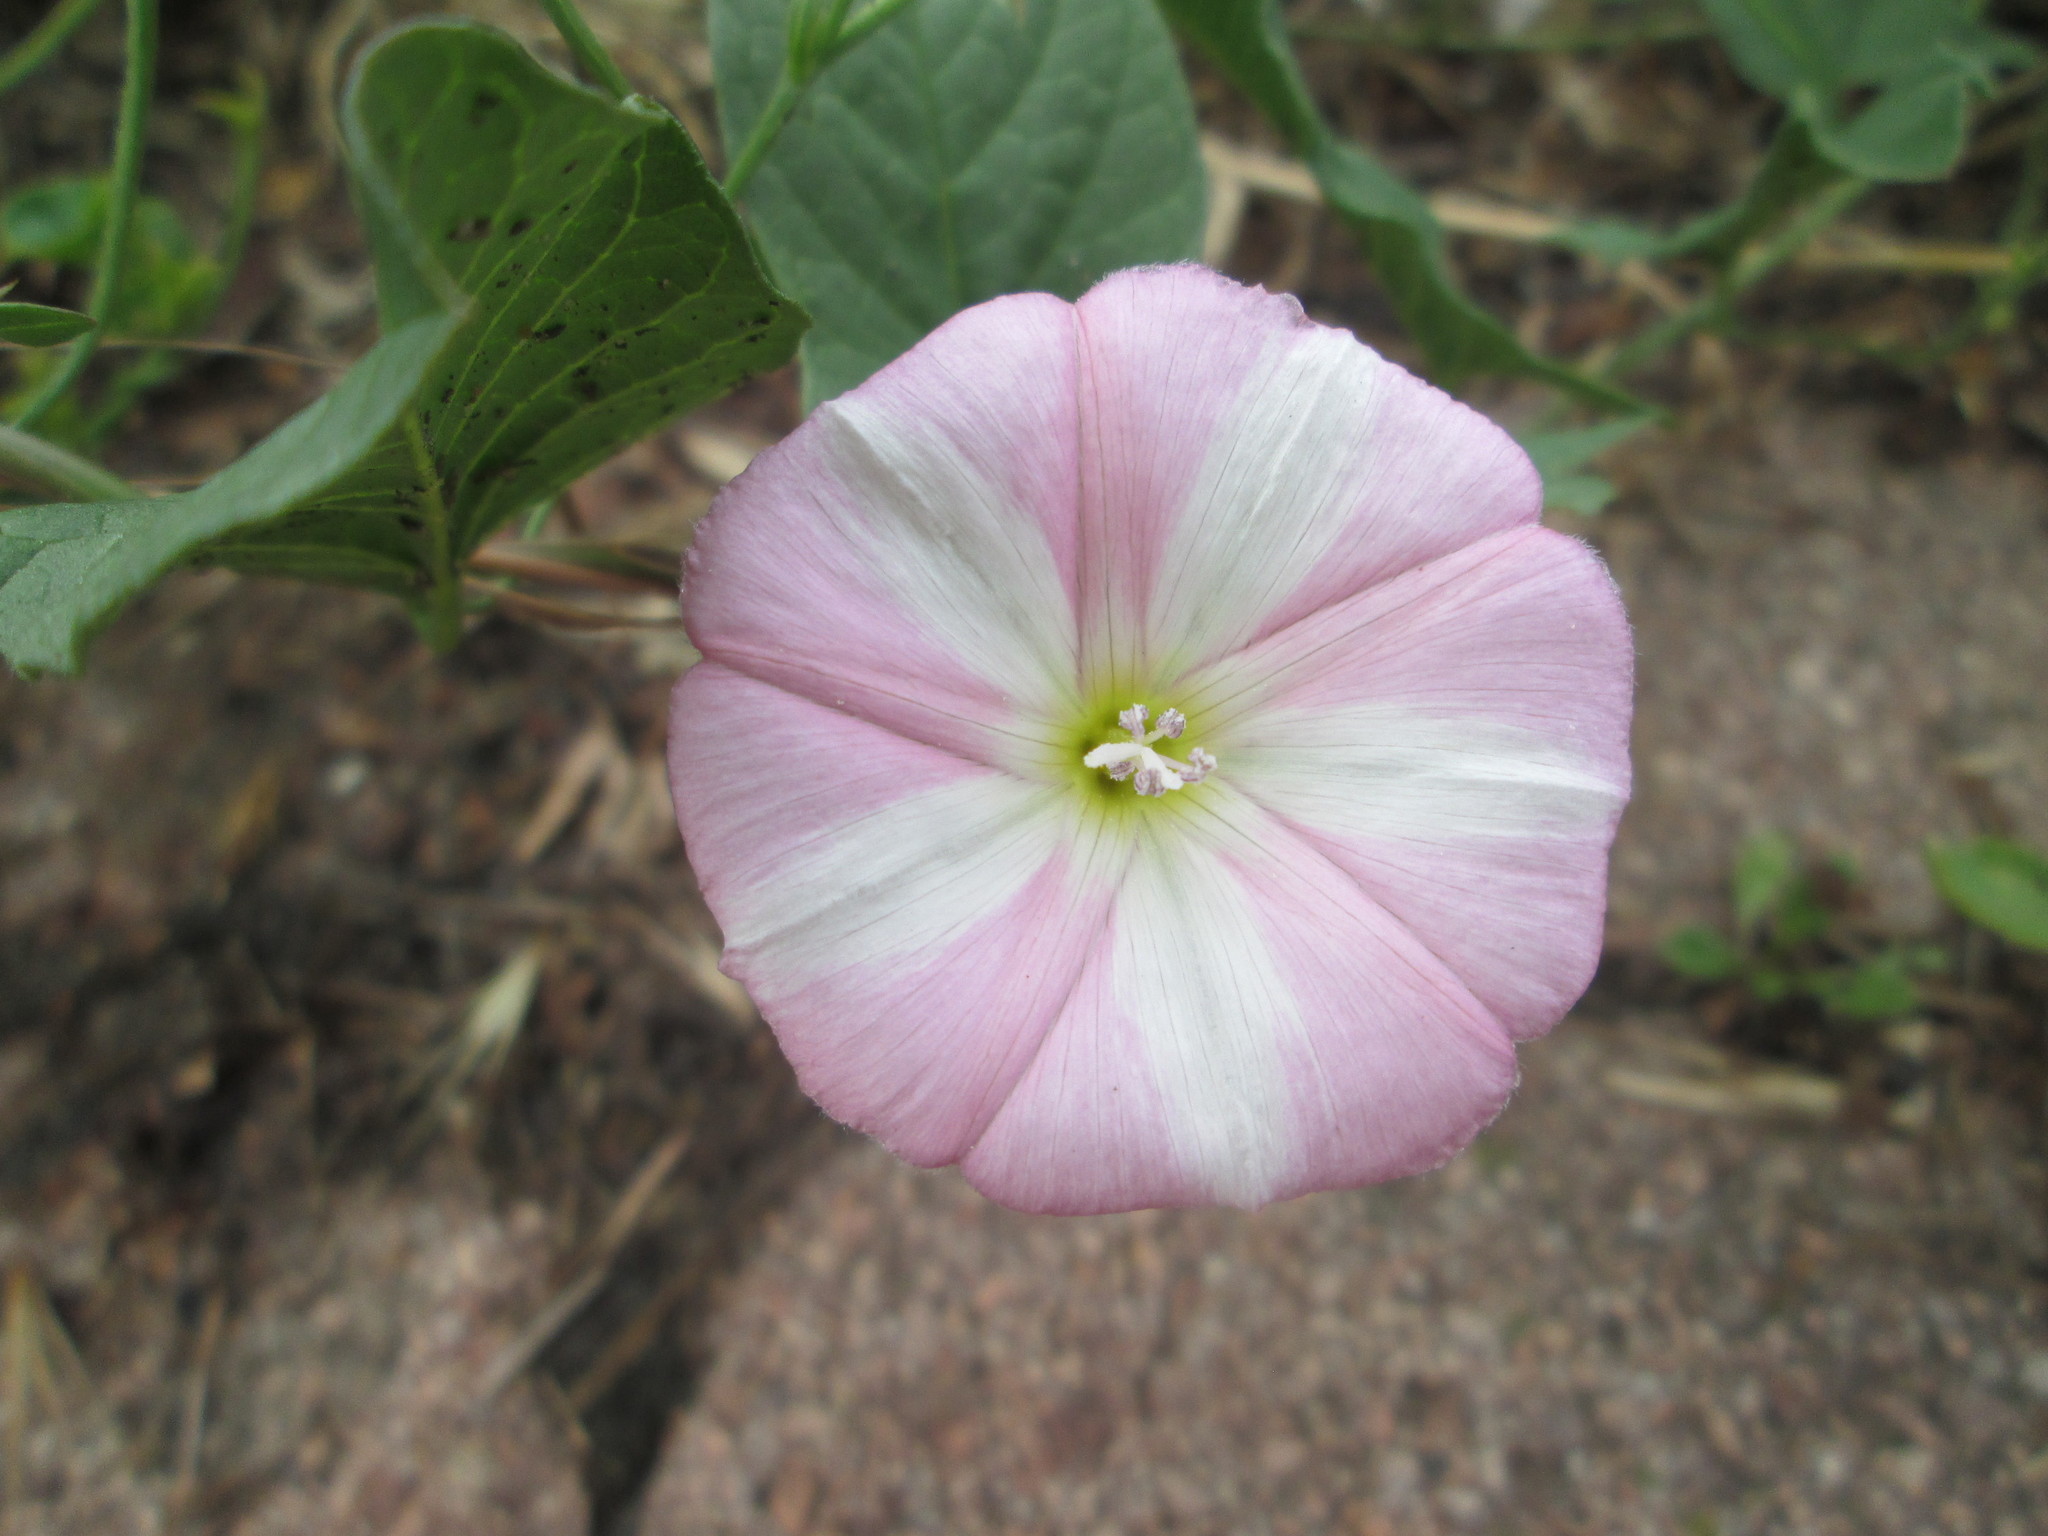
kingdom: Plantae
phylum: Tracheophyta
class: Magnoliopsida
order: Solanales
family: Convolvulaceae
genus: Convolvulus
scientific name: Convolvulus arvensis
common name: Field bindweed
